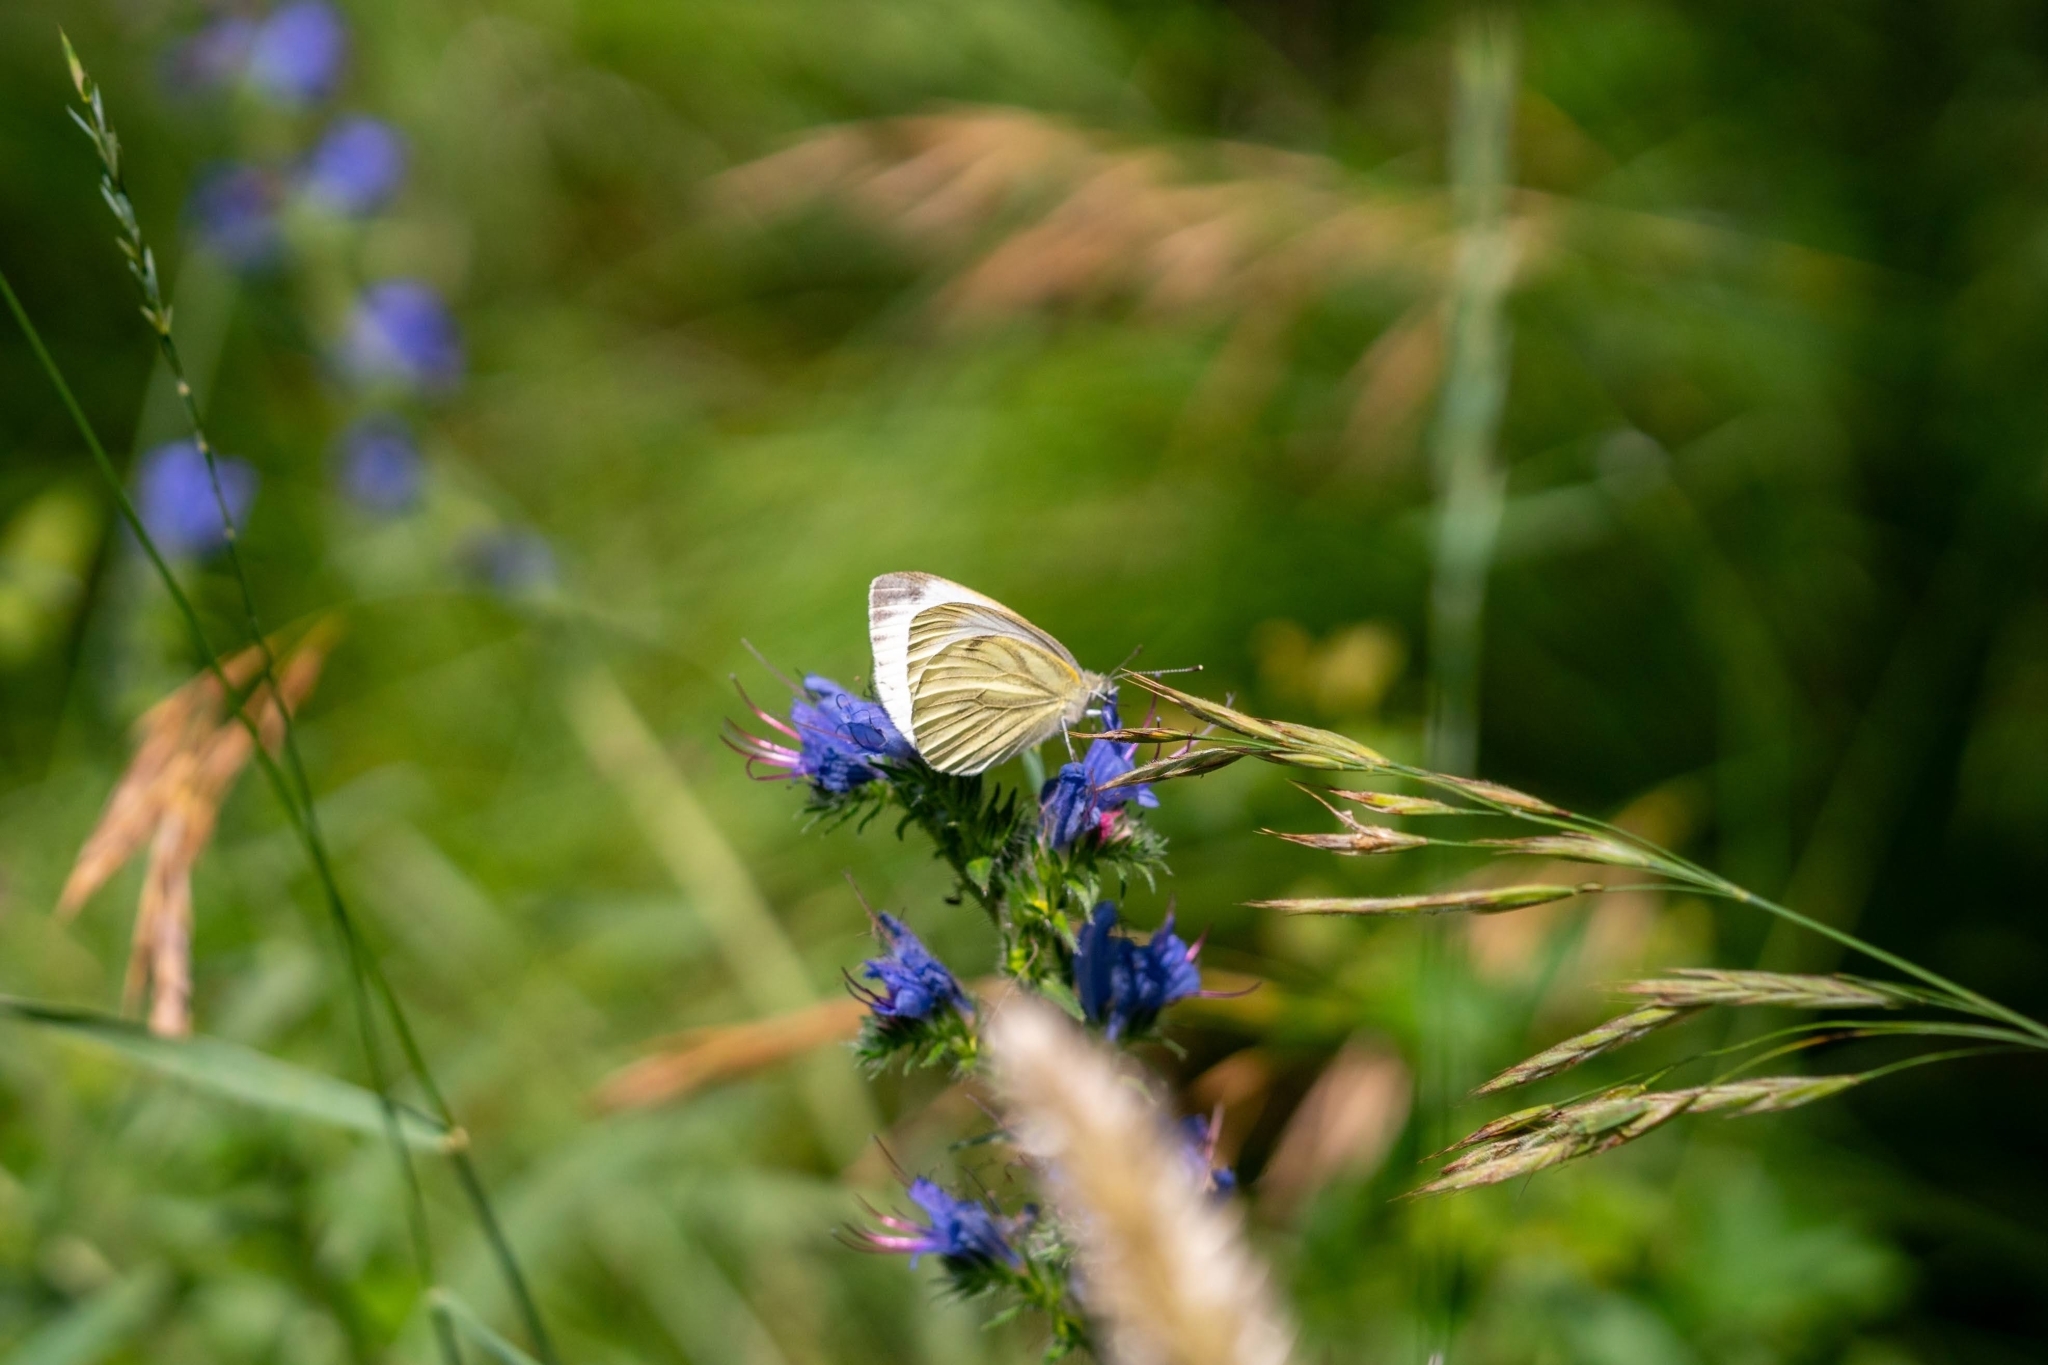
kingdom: Animalia
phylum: Arthropoda
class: Insecta
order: Lepidoptera
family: Pieridae
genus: Pieris
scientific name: Pieris napi
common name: Green-veined white
